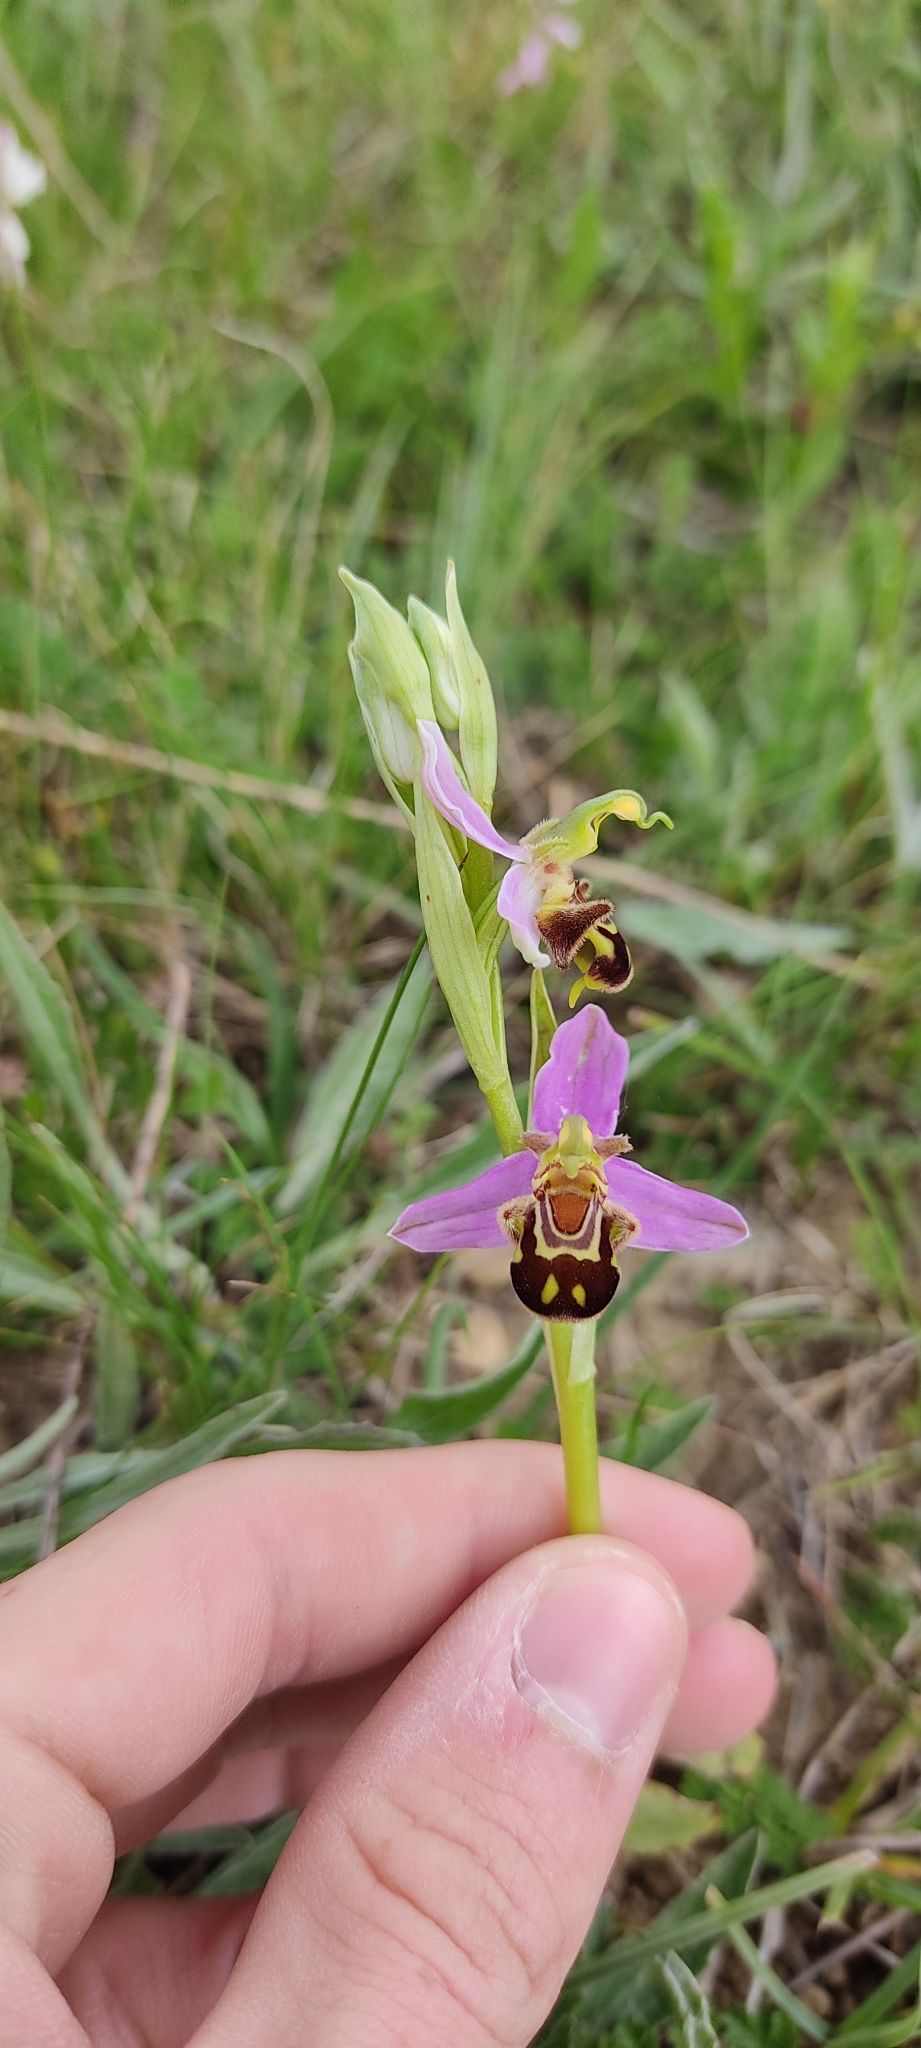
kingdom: Plantae
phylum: Tracheophyta
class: Liliopsida
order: Asparagales
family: Orchidaceae
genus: Ophrys
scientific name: Ophrys apifera
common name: Bee orchid
